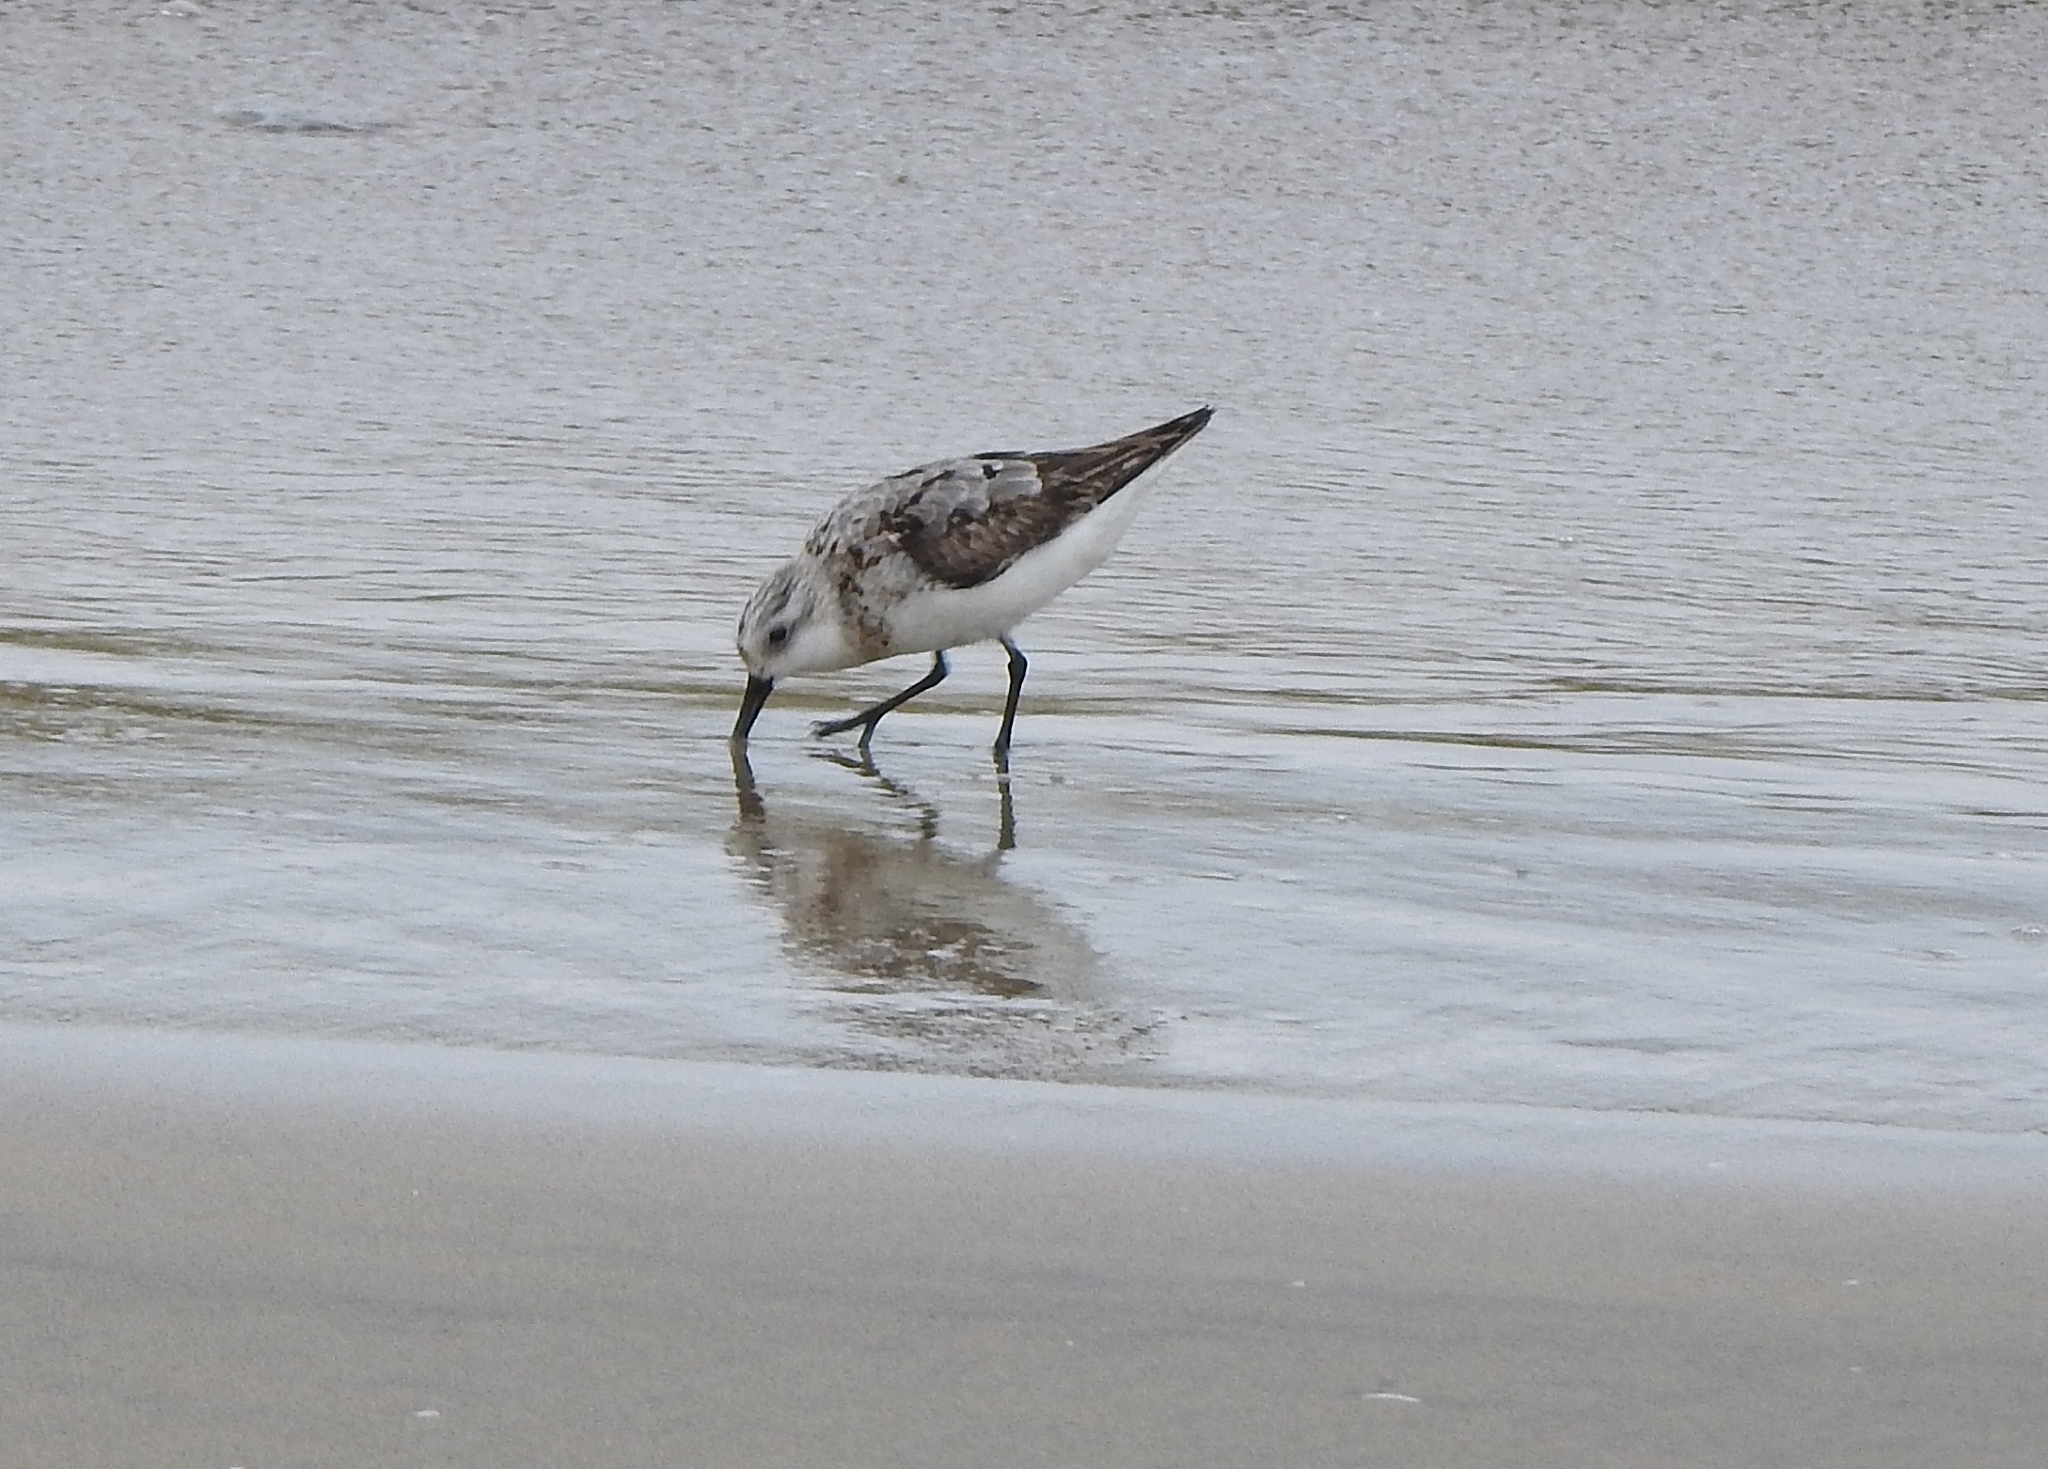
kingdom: Animalia
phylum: Chordata
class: Aves
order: Charadriiformes
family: Scolopacidae
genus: Calidris
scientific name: Calidris alba
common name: Sanderling
